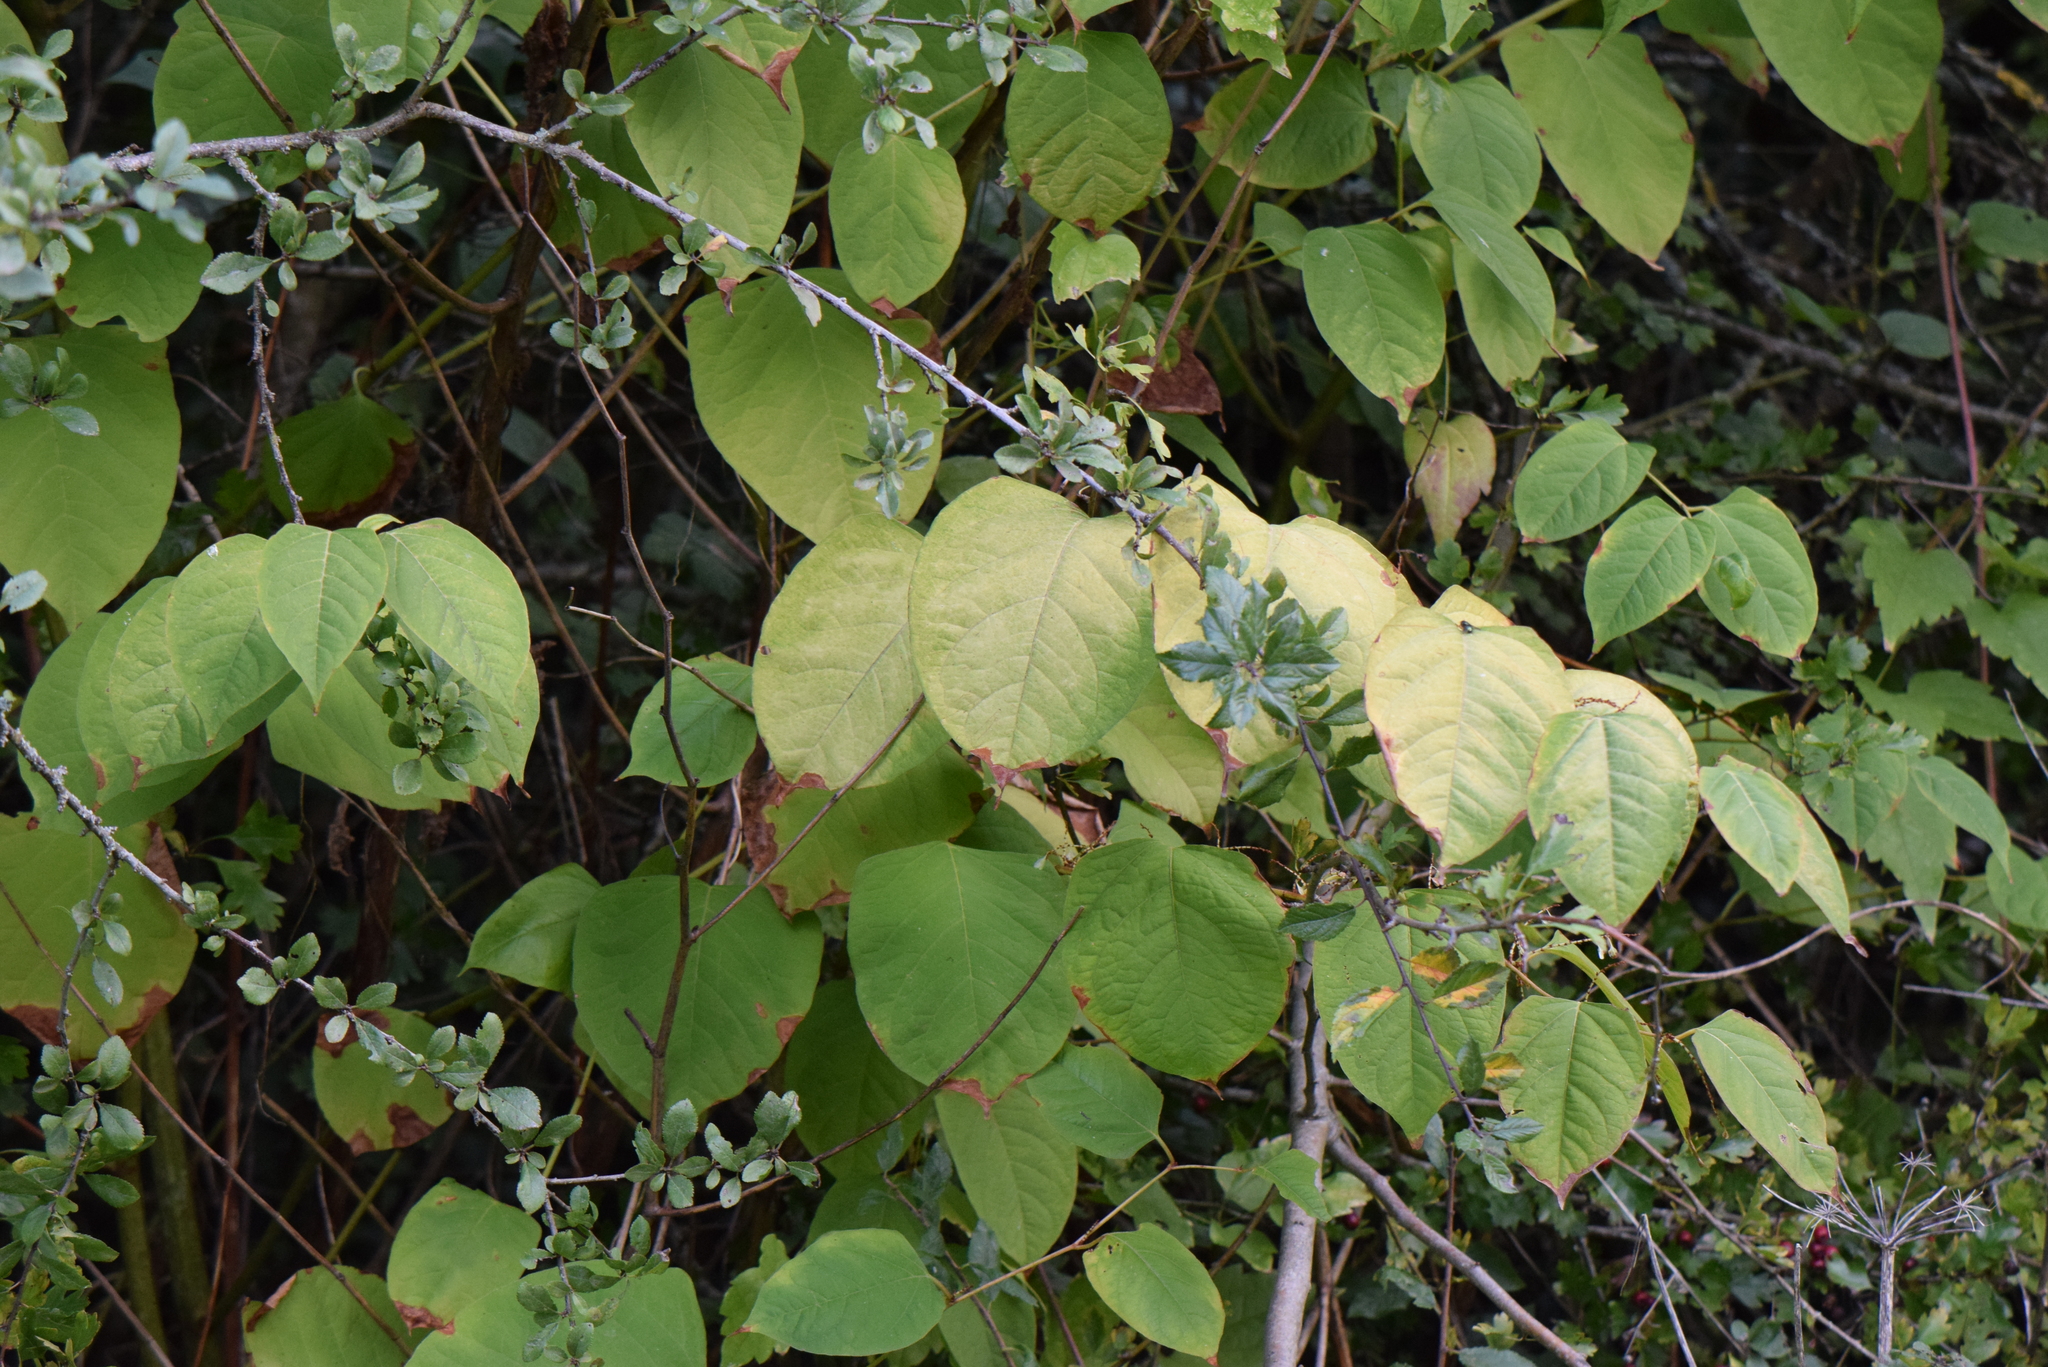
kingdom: Plantae
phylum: Tracheophyta
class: Magnoliopsida
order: Caryophyllales
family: Polygonaceae
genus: Reynoutria
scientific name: Reynoutria japonica
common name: Japanese knotweed
